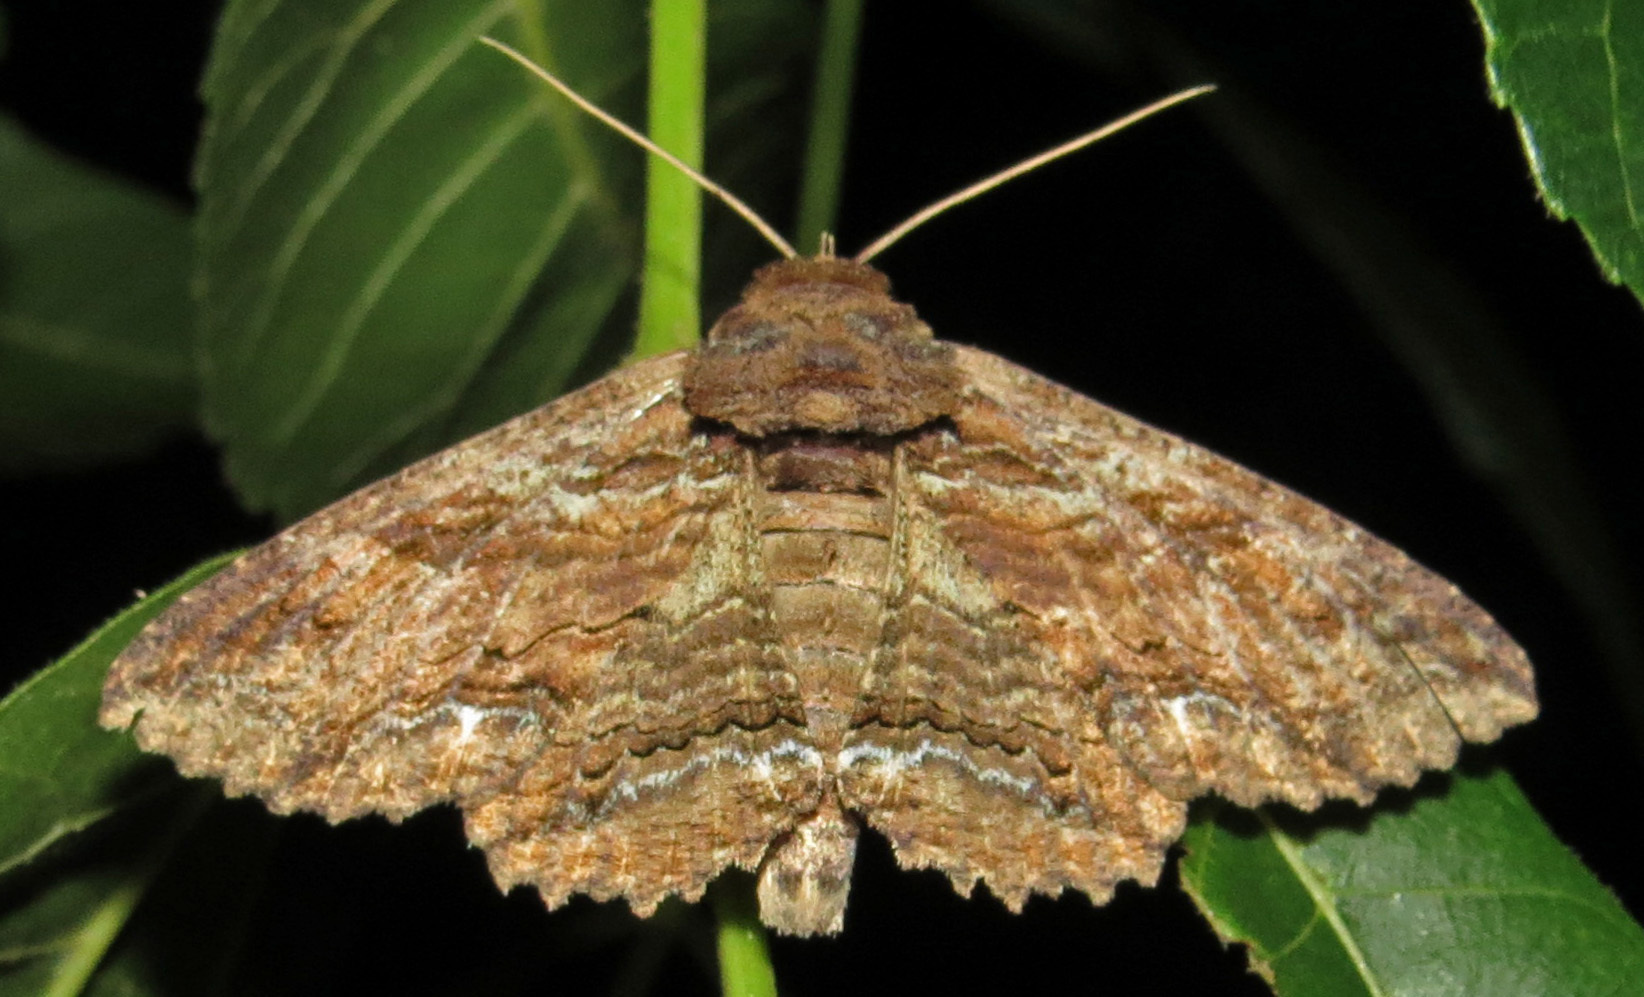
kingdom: Animalia
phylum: Arthropoda
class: Insecta
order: Lepidoptera
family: Erebidae
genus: Zale
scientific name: Zale lunata
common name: Lunate zale moth
